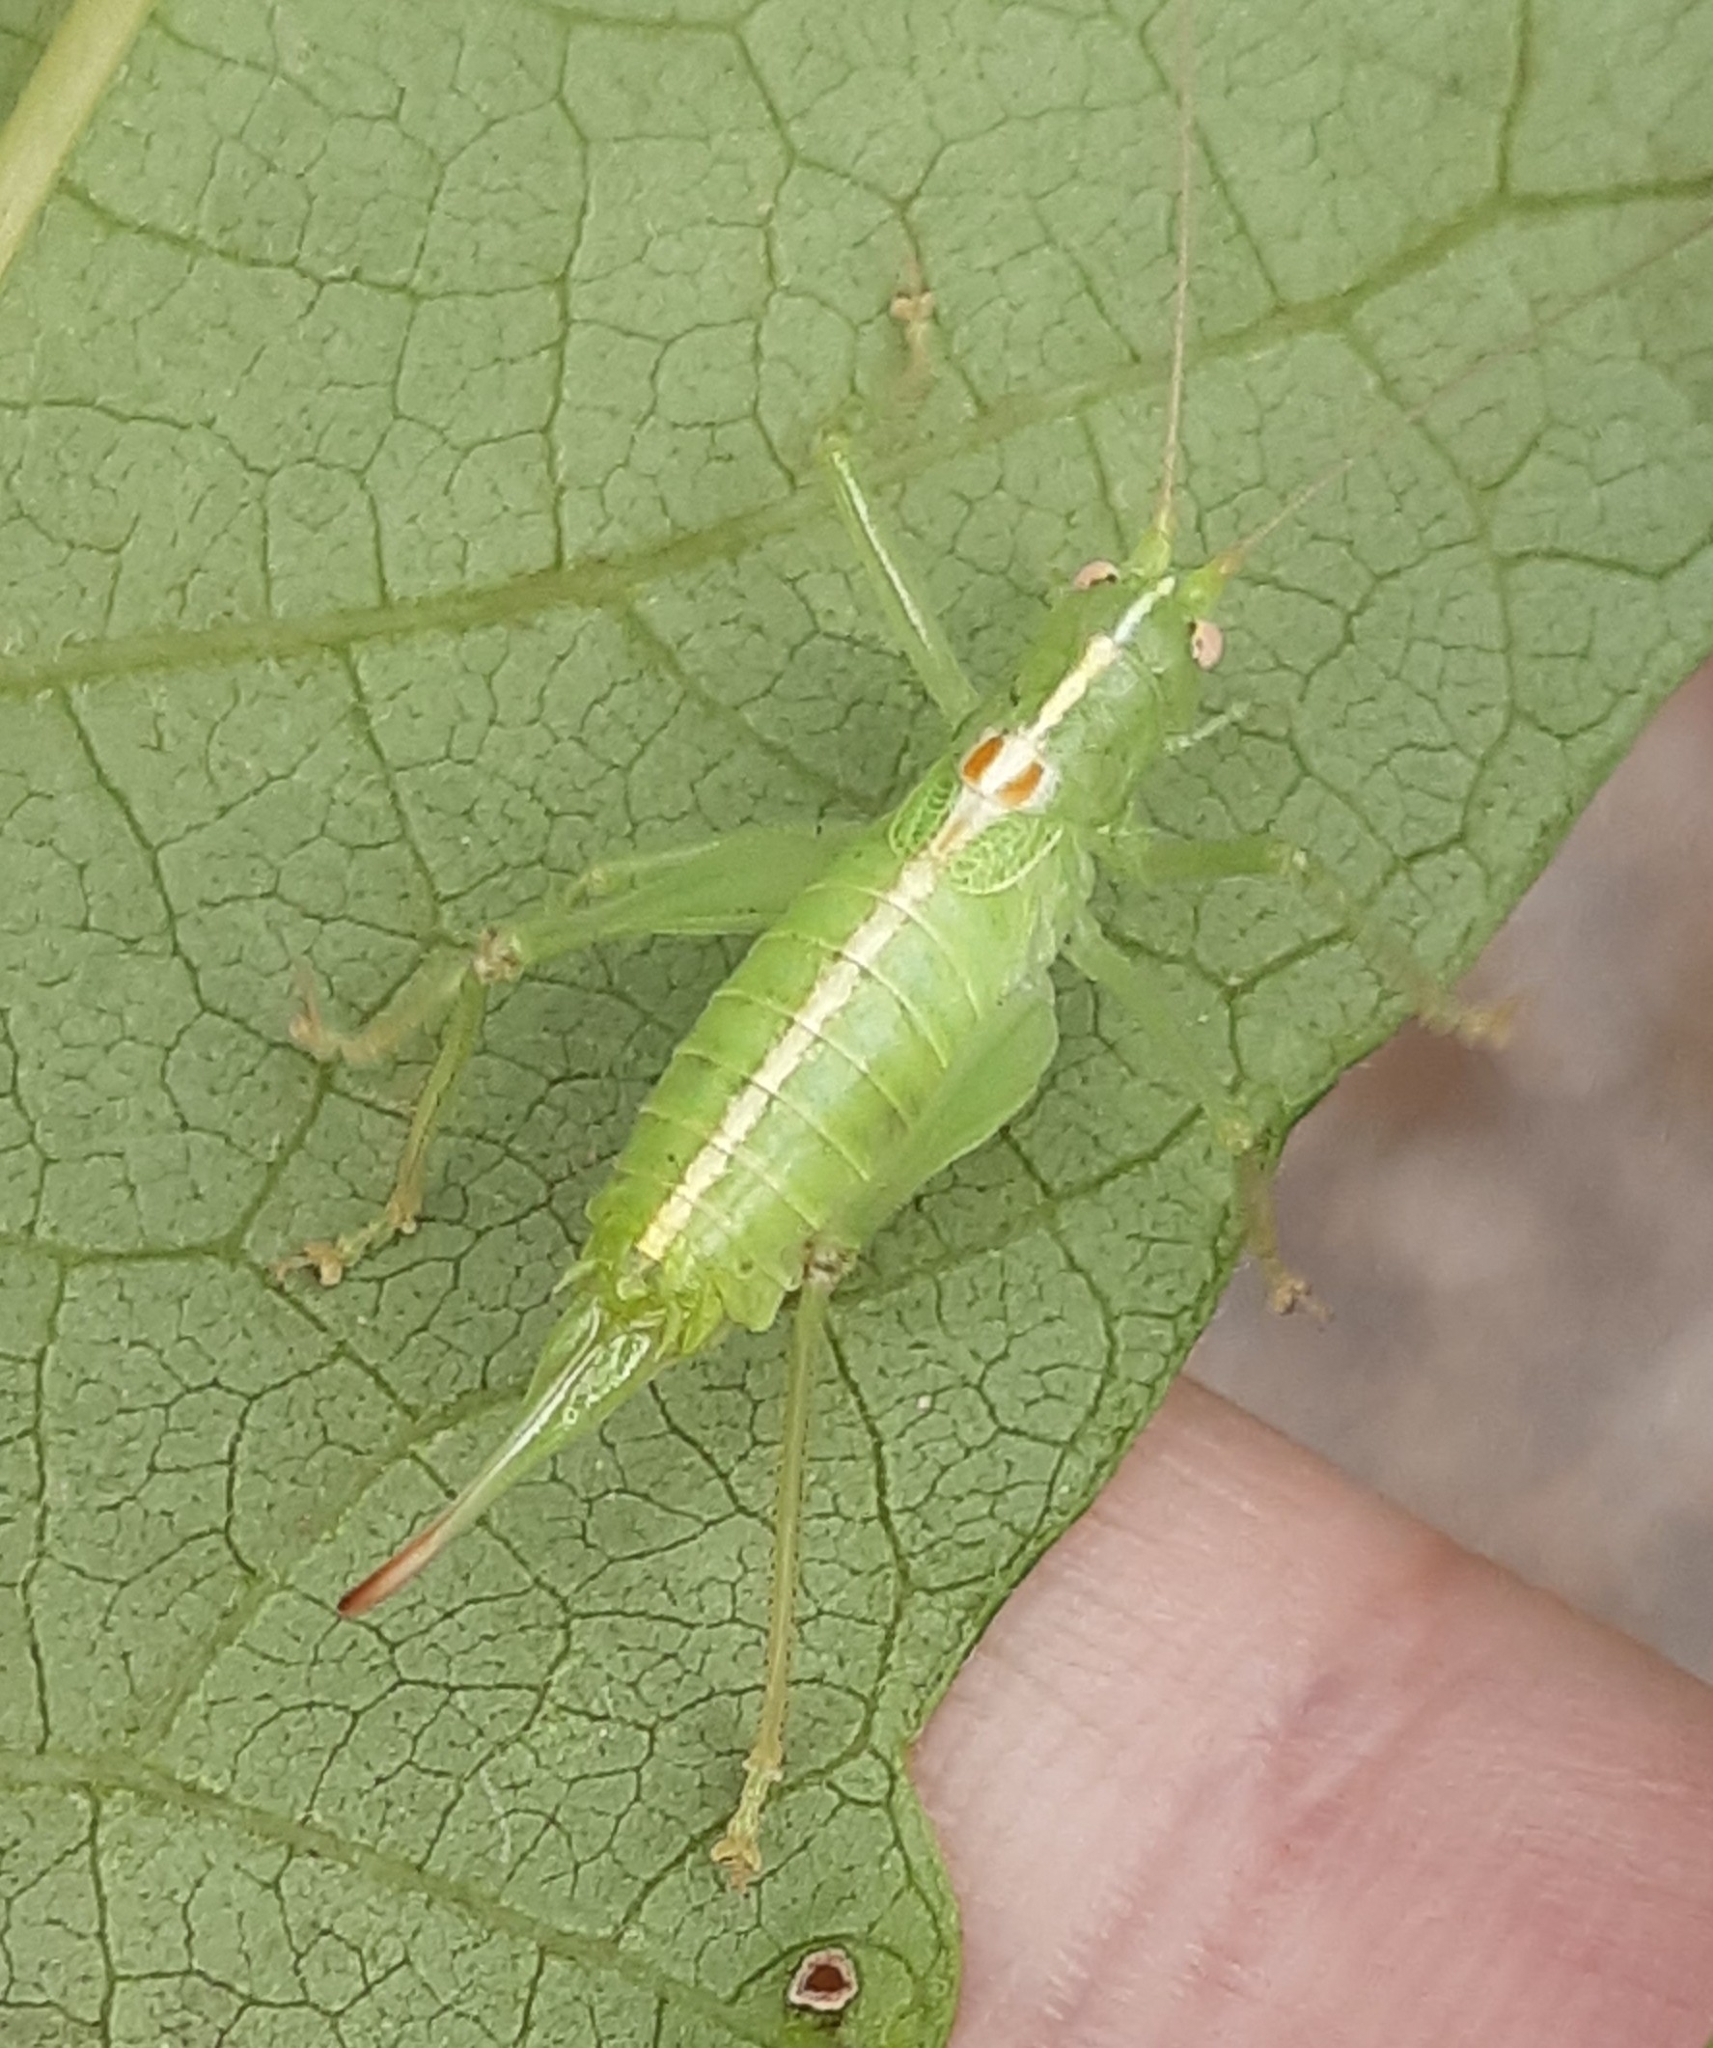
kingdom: Animalia
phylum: Arthropoda
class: Insecta
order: Orthoptera
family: Tettigoniidae
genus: Meconema
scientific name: Meconema meridionale
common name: Southern oak bush-cricket
